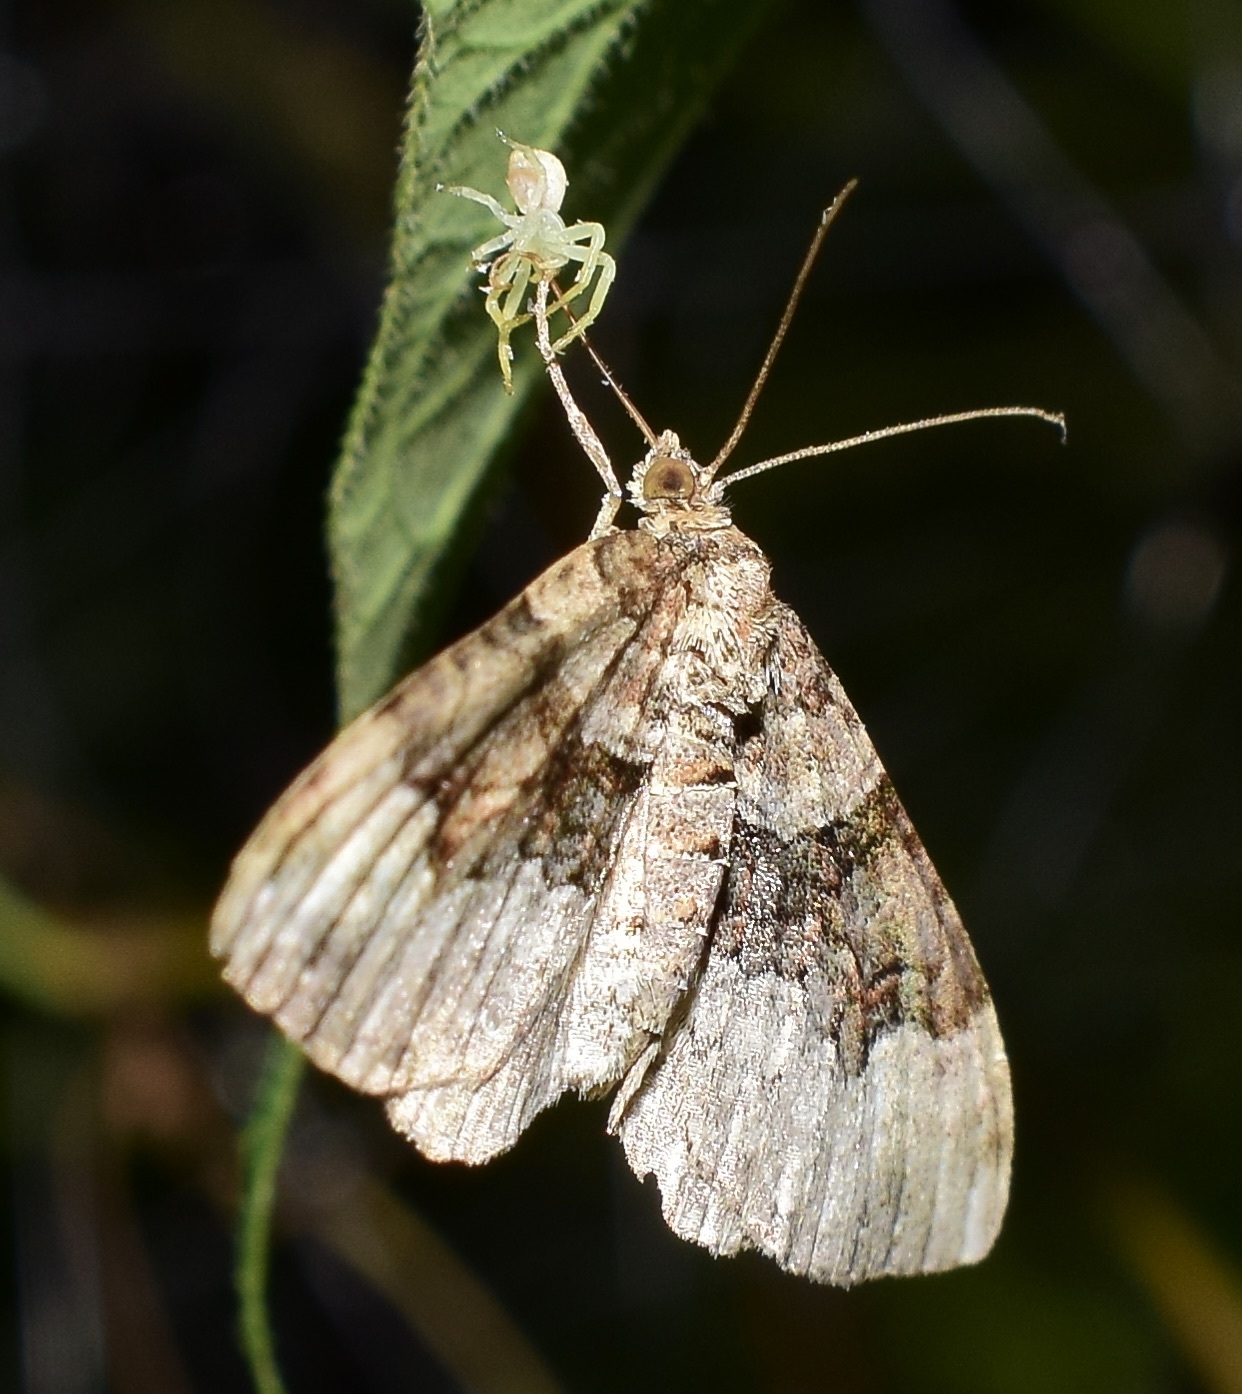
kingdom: Animalia
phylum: Arthropoda
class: Insecta
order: Lepidoptera
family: Geometridae
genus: Xanthorhoe
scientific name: Xanthorhoe lacustrata
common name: Toothed brown carpet
